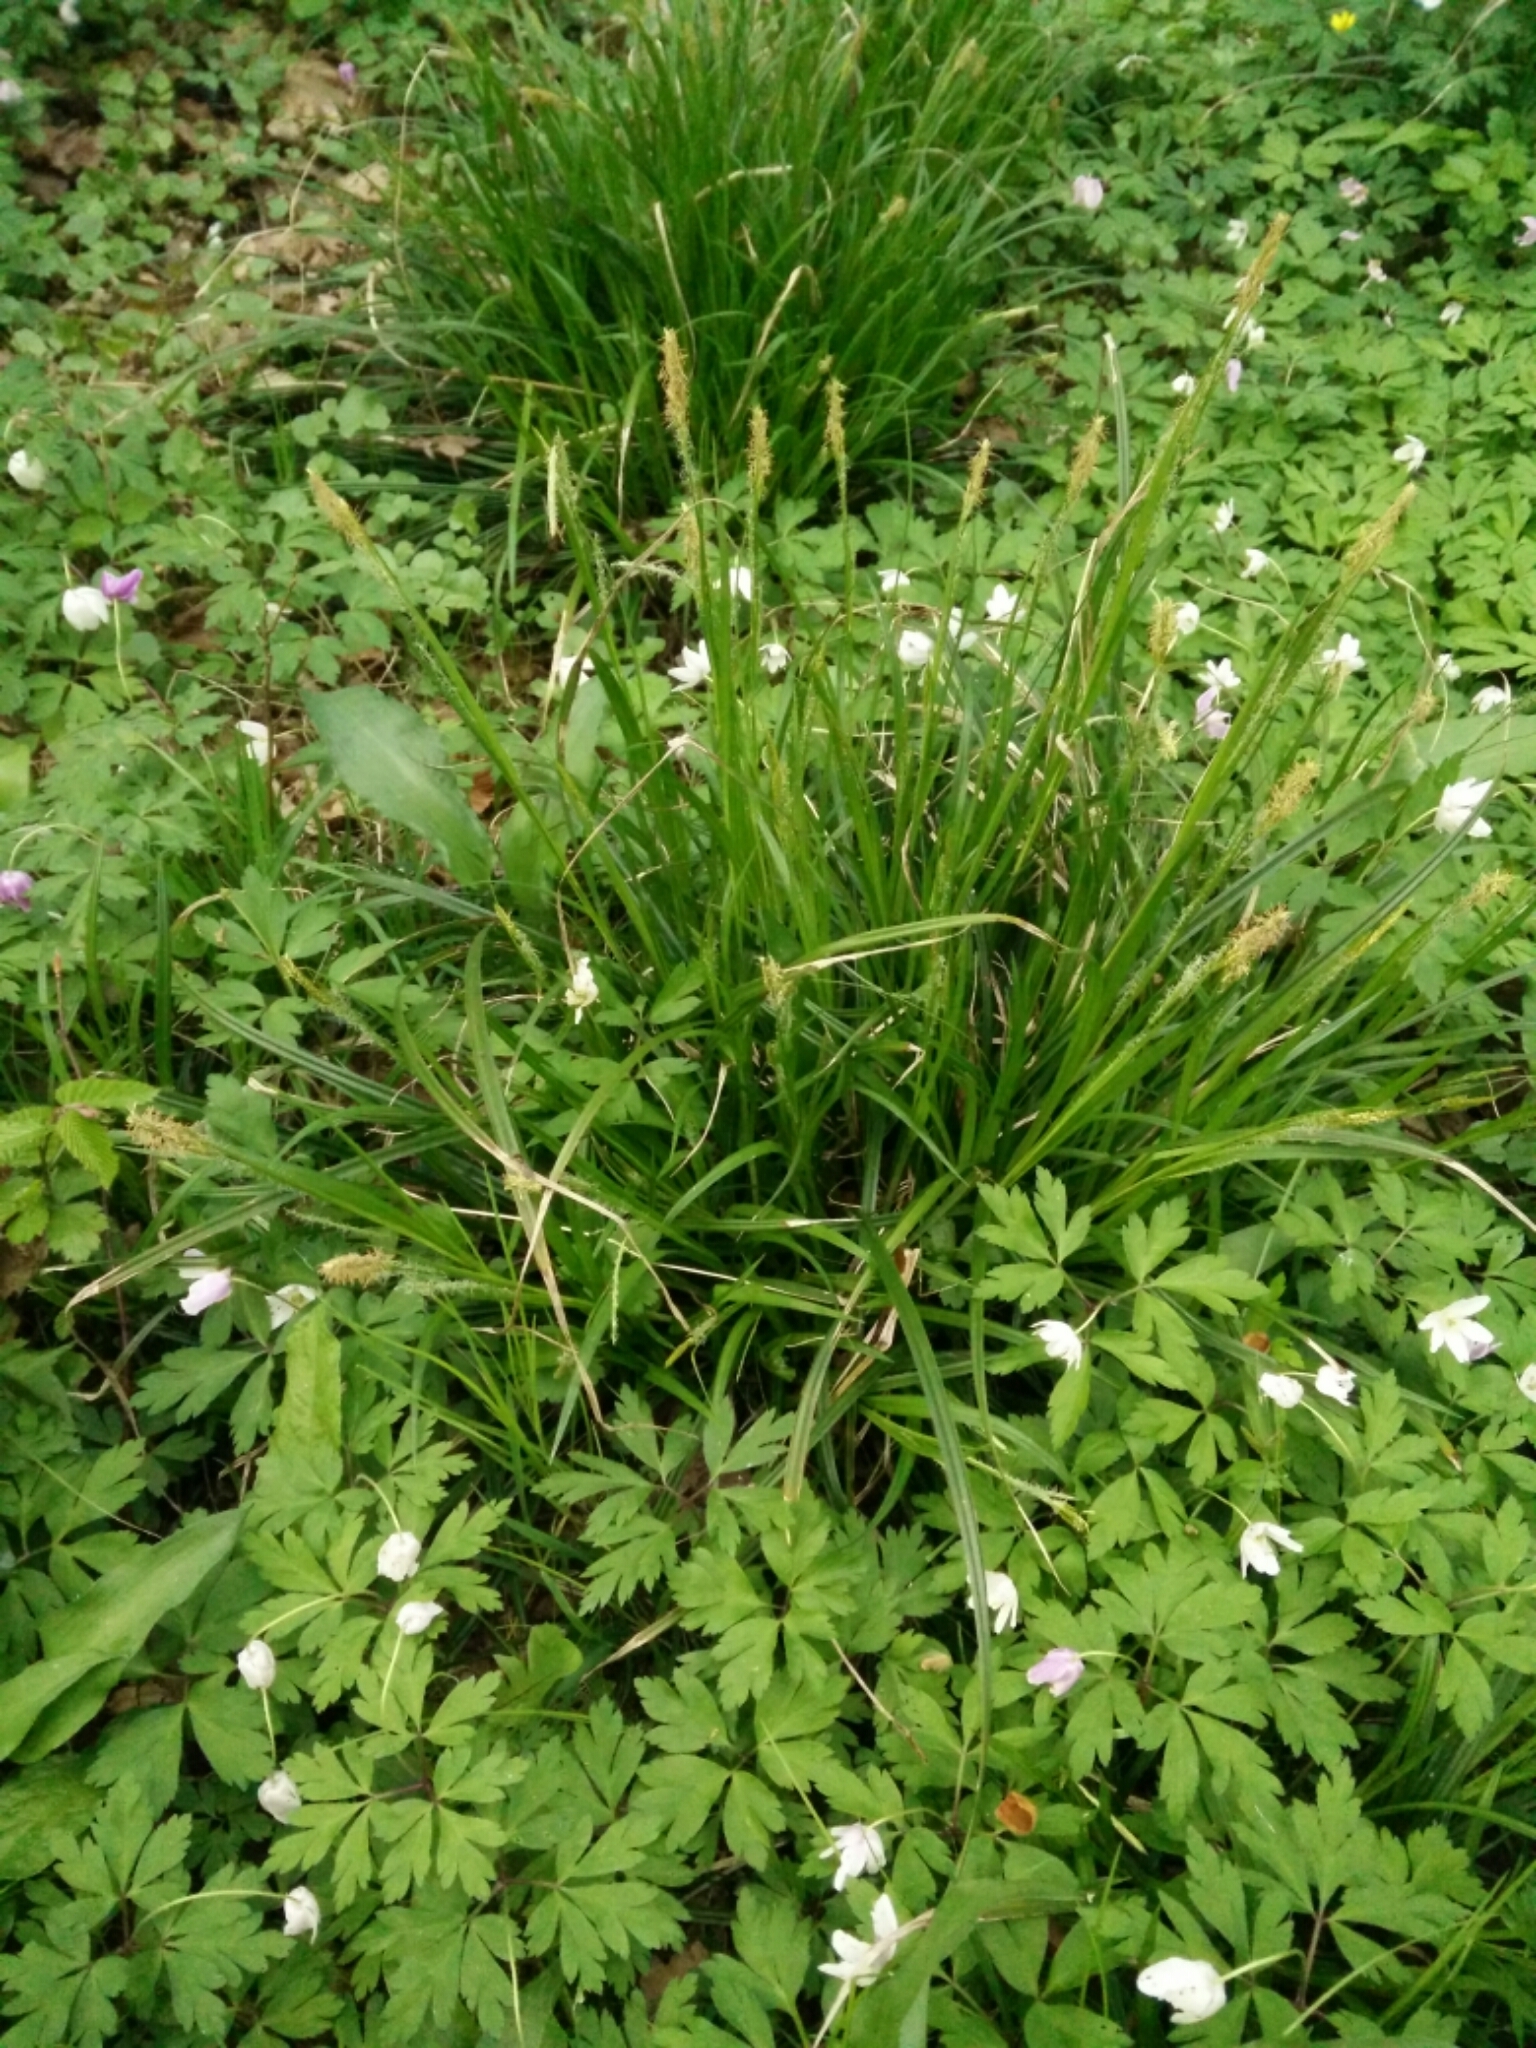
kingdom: Plantae
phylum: Tracheophyta
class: Liliopsida
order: Poales
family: Cyperaceae
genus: Carex
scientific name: Carex sylvatica
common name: Wood-sedge
